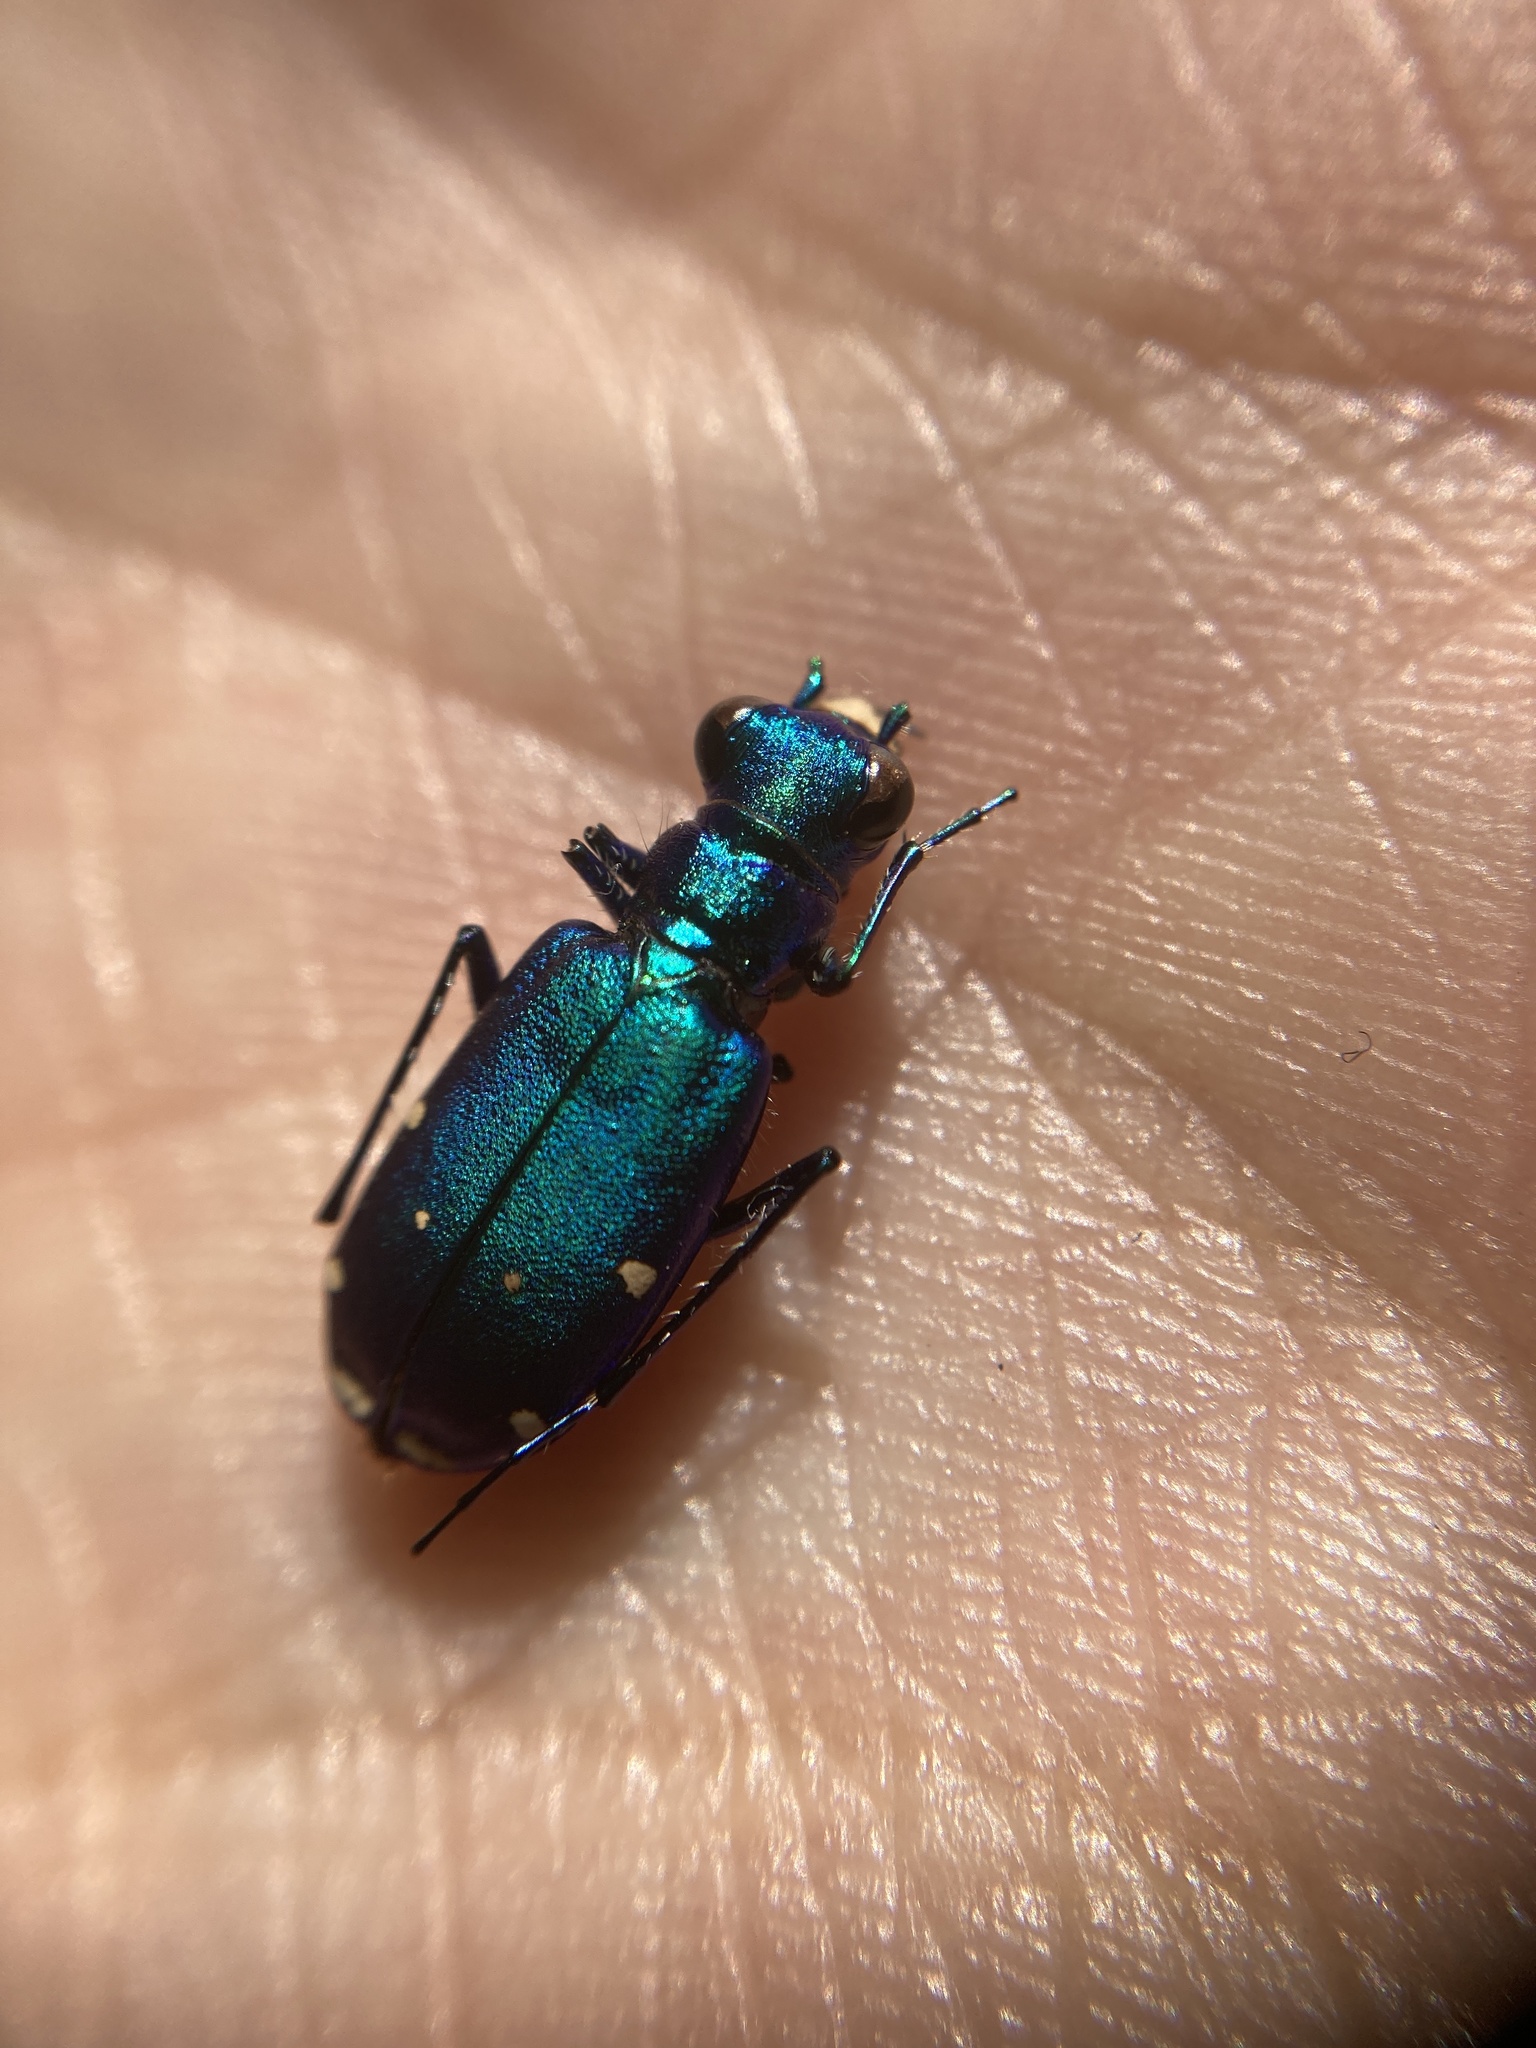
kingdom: Animalia
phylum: Arthropoda
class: Insecta
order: Coleoptera
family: Carabidae
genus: Cicindela
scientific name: Cicindela sexguttata
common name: Six-spotted tiger beetle
